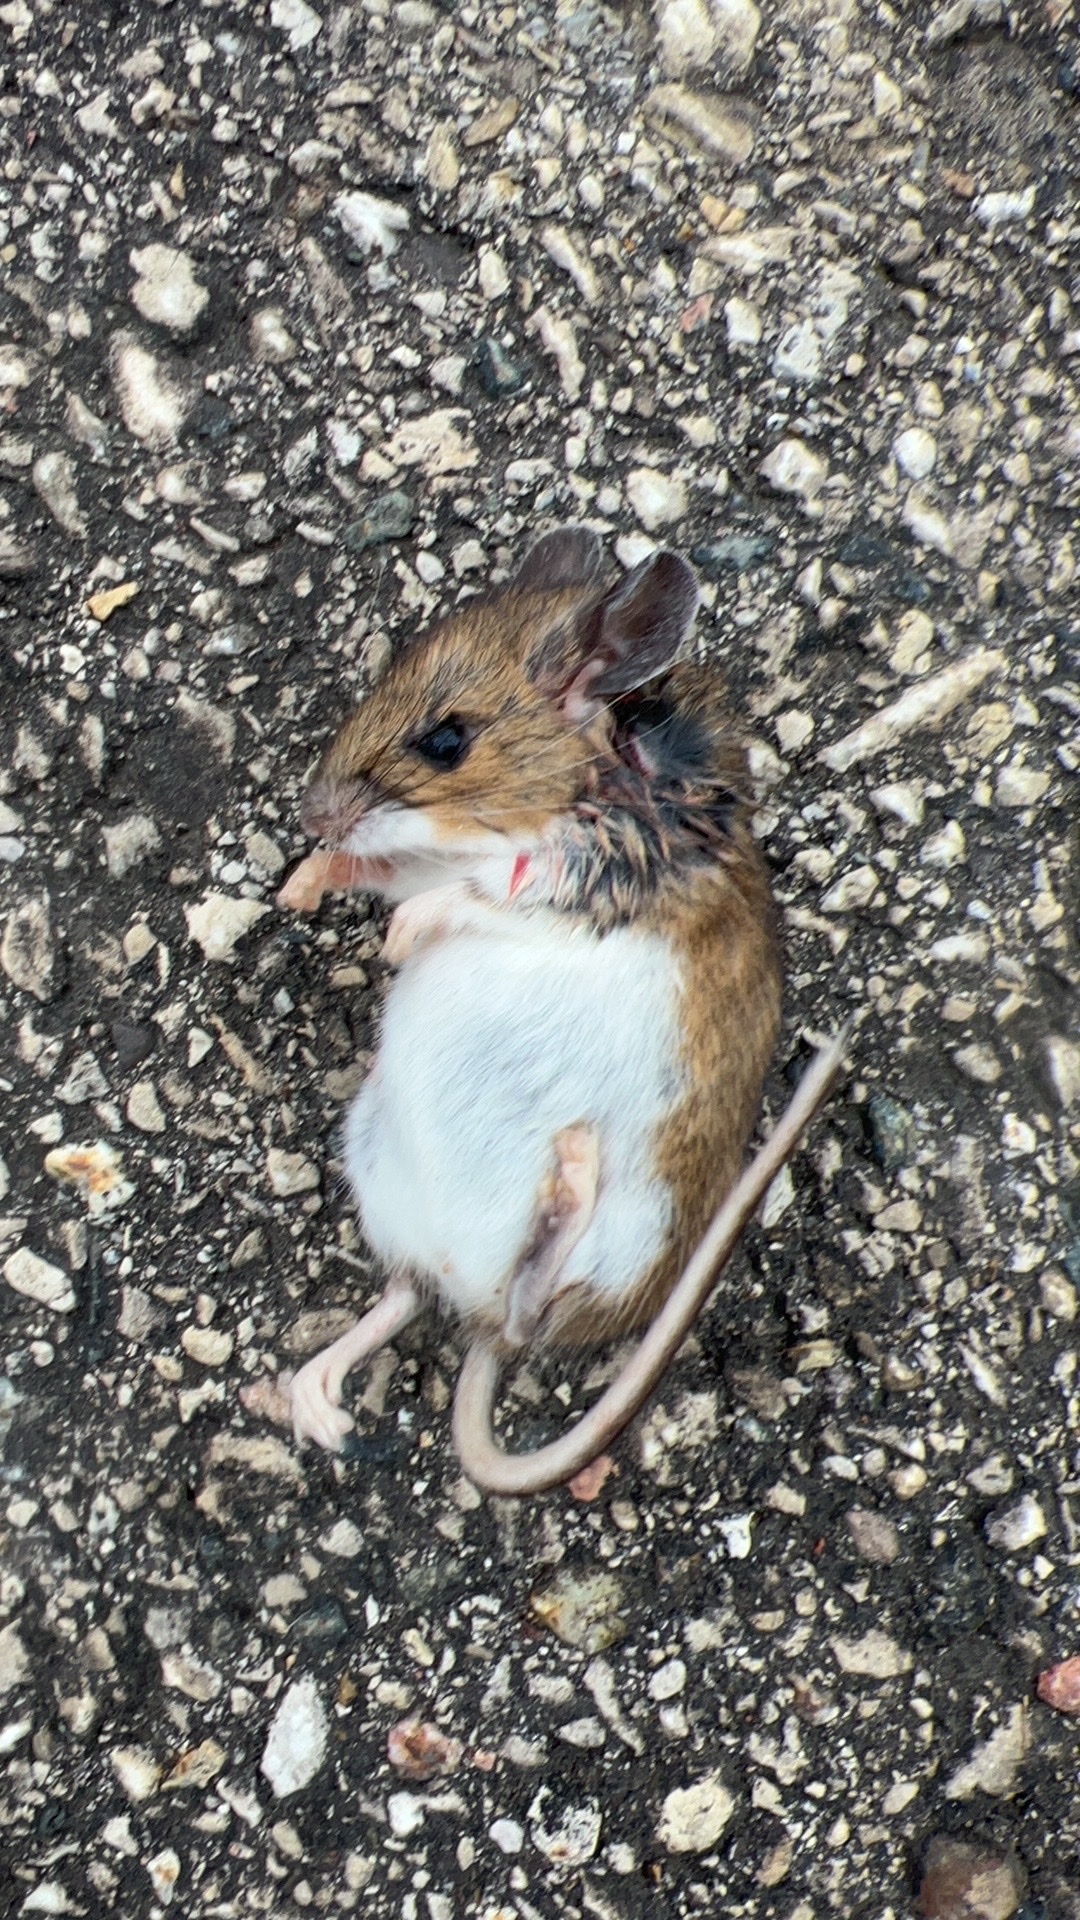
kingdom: Animalia
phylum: Chordata
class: Mammalia
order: Rodentia
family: Cricetidae
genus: Peromyscus
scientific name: Peromyscus leucopus
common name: White-footed deermouse
